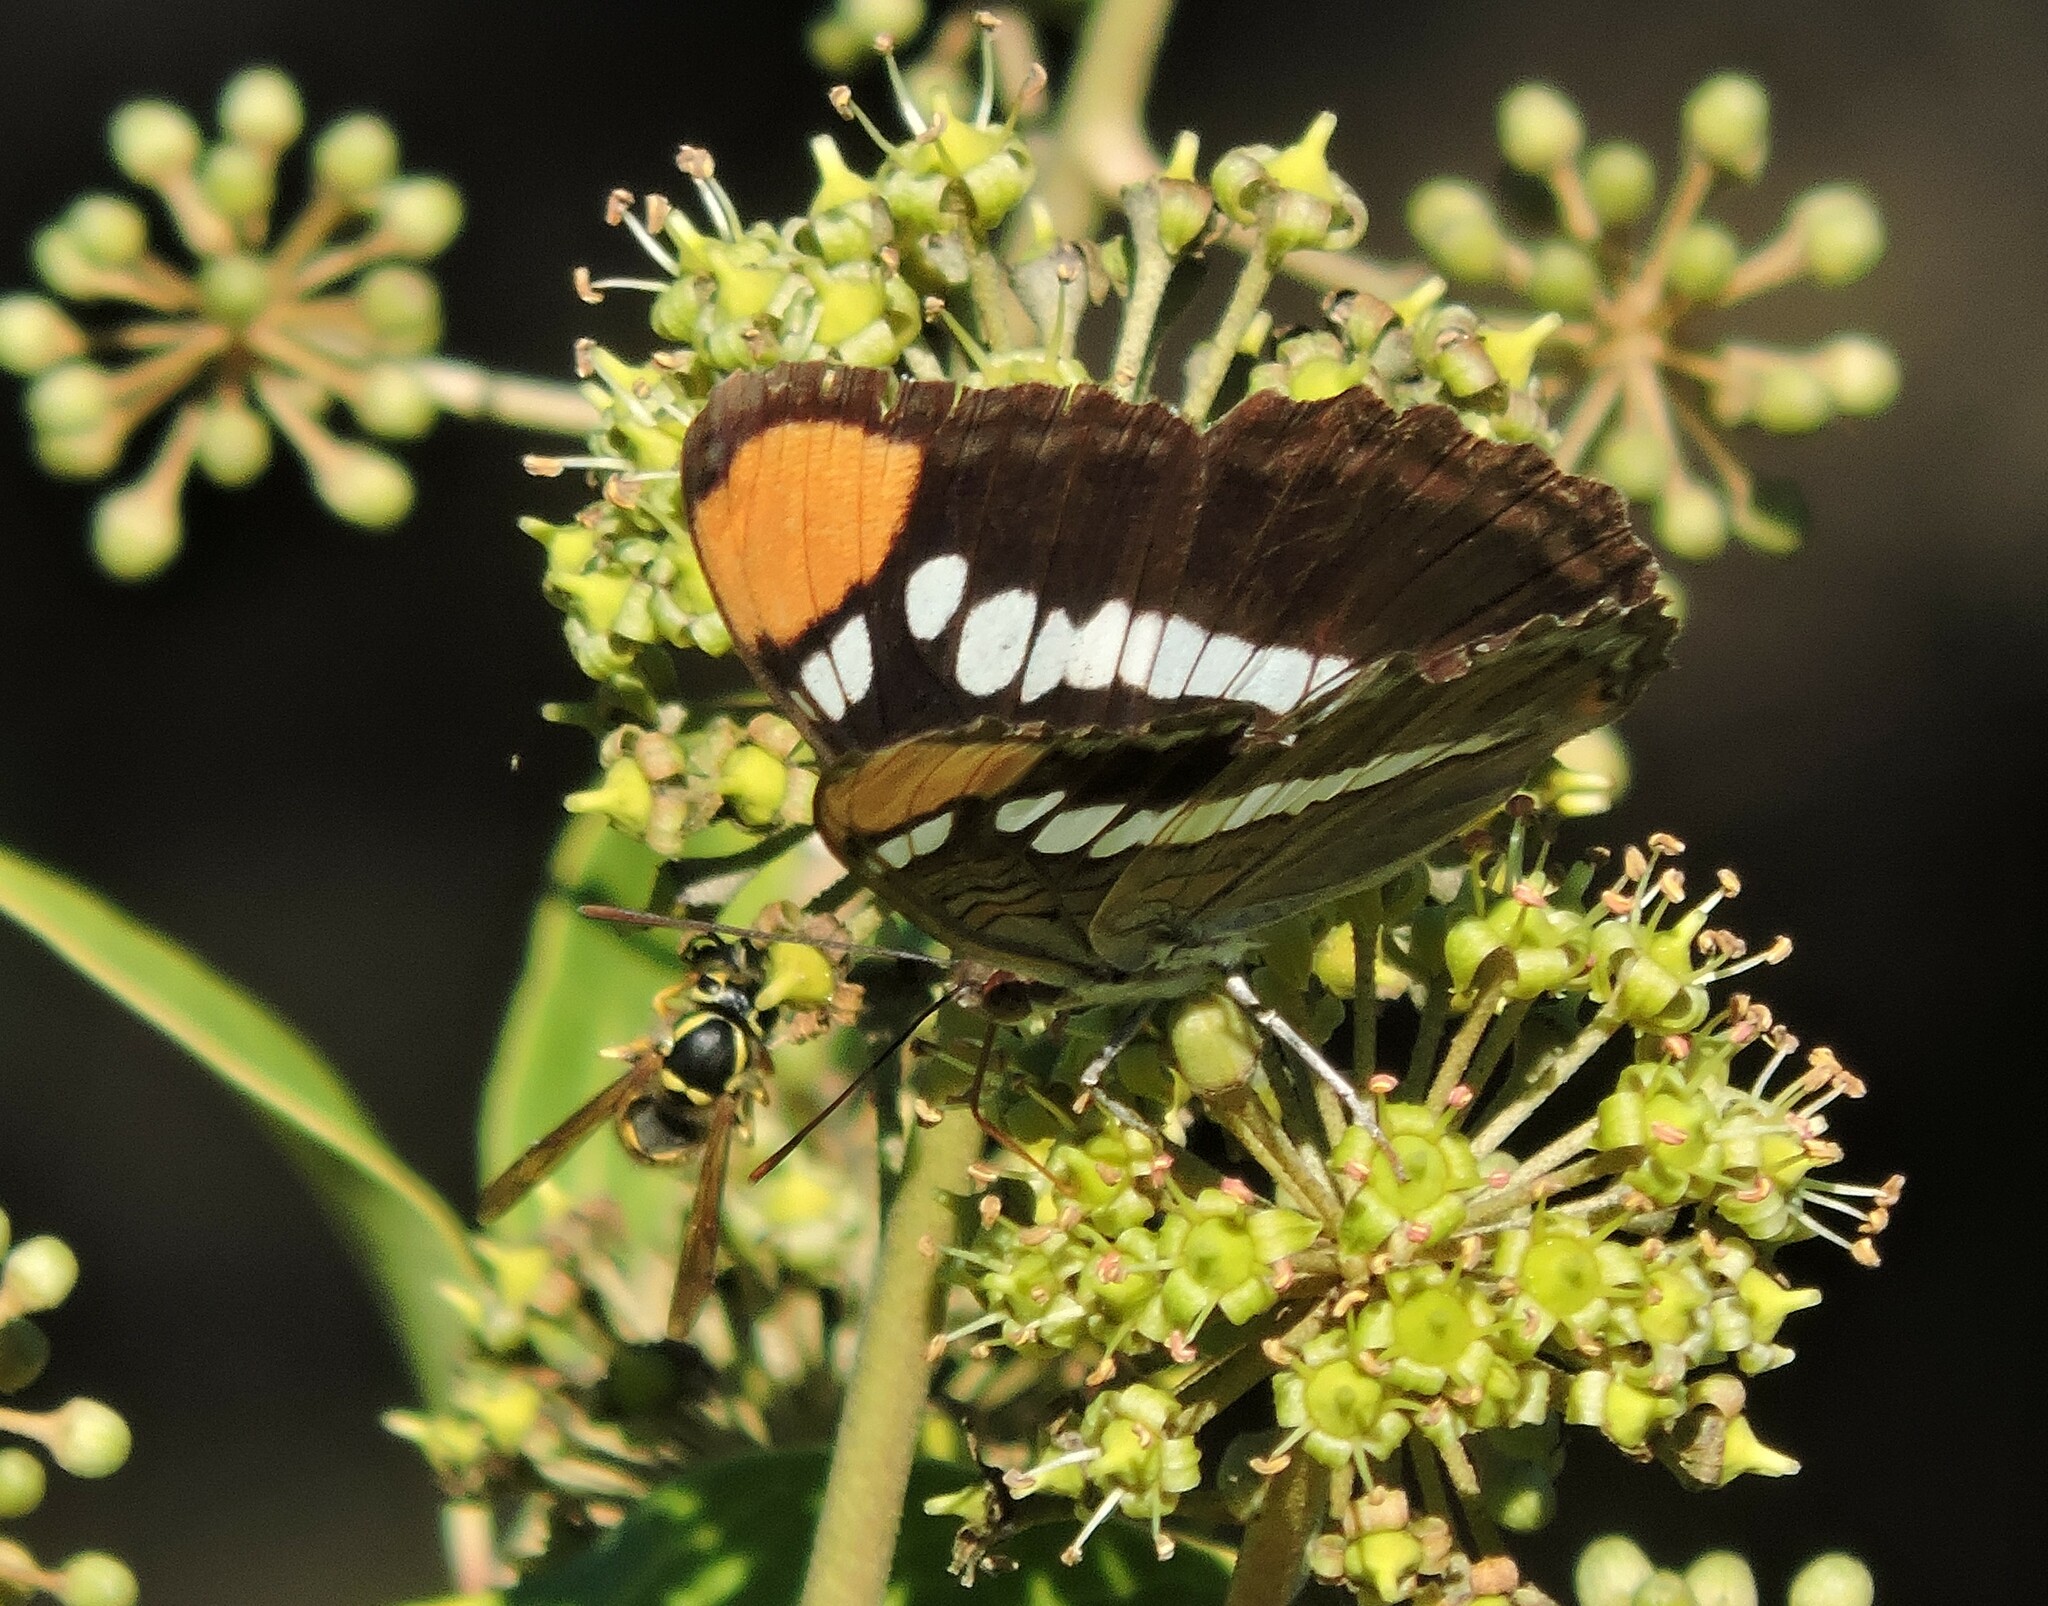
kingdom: Animalia
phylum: Arthropoda
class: Insecta
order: Lepidoptera
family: Nymphalidae
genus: Limenitis
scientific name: Limenitis bredowii
